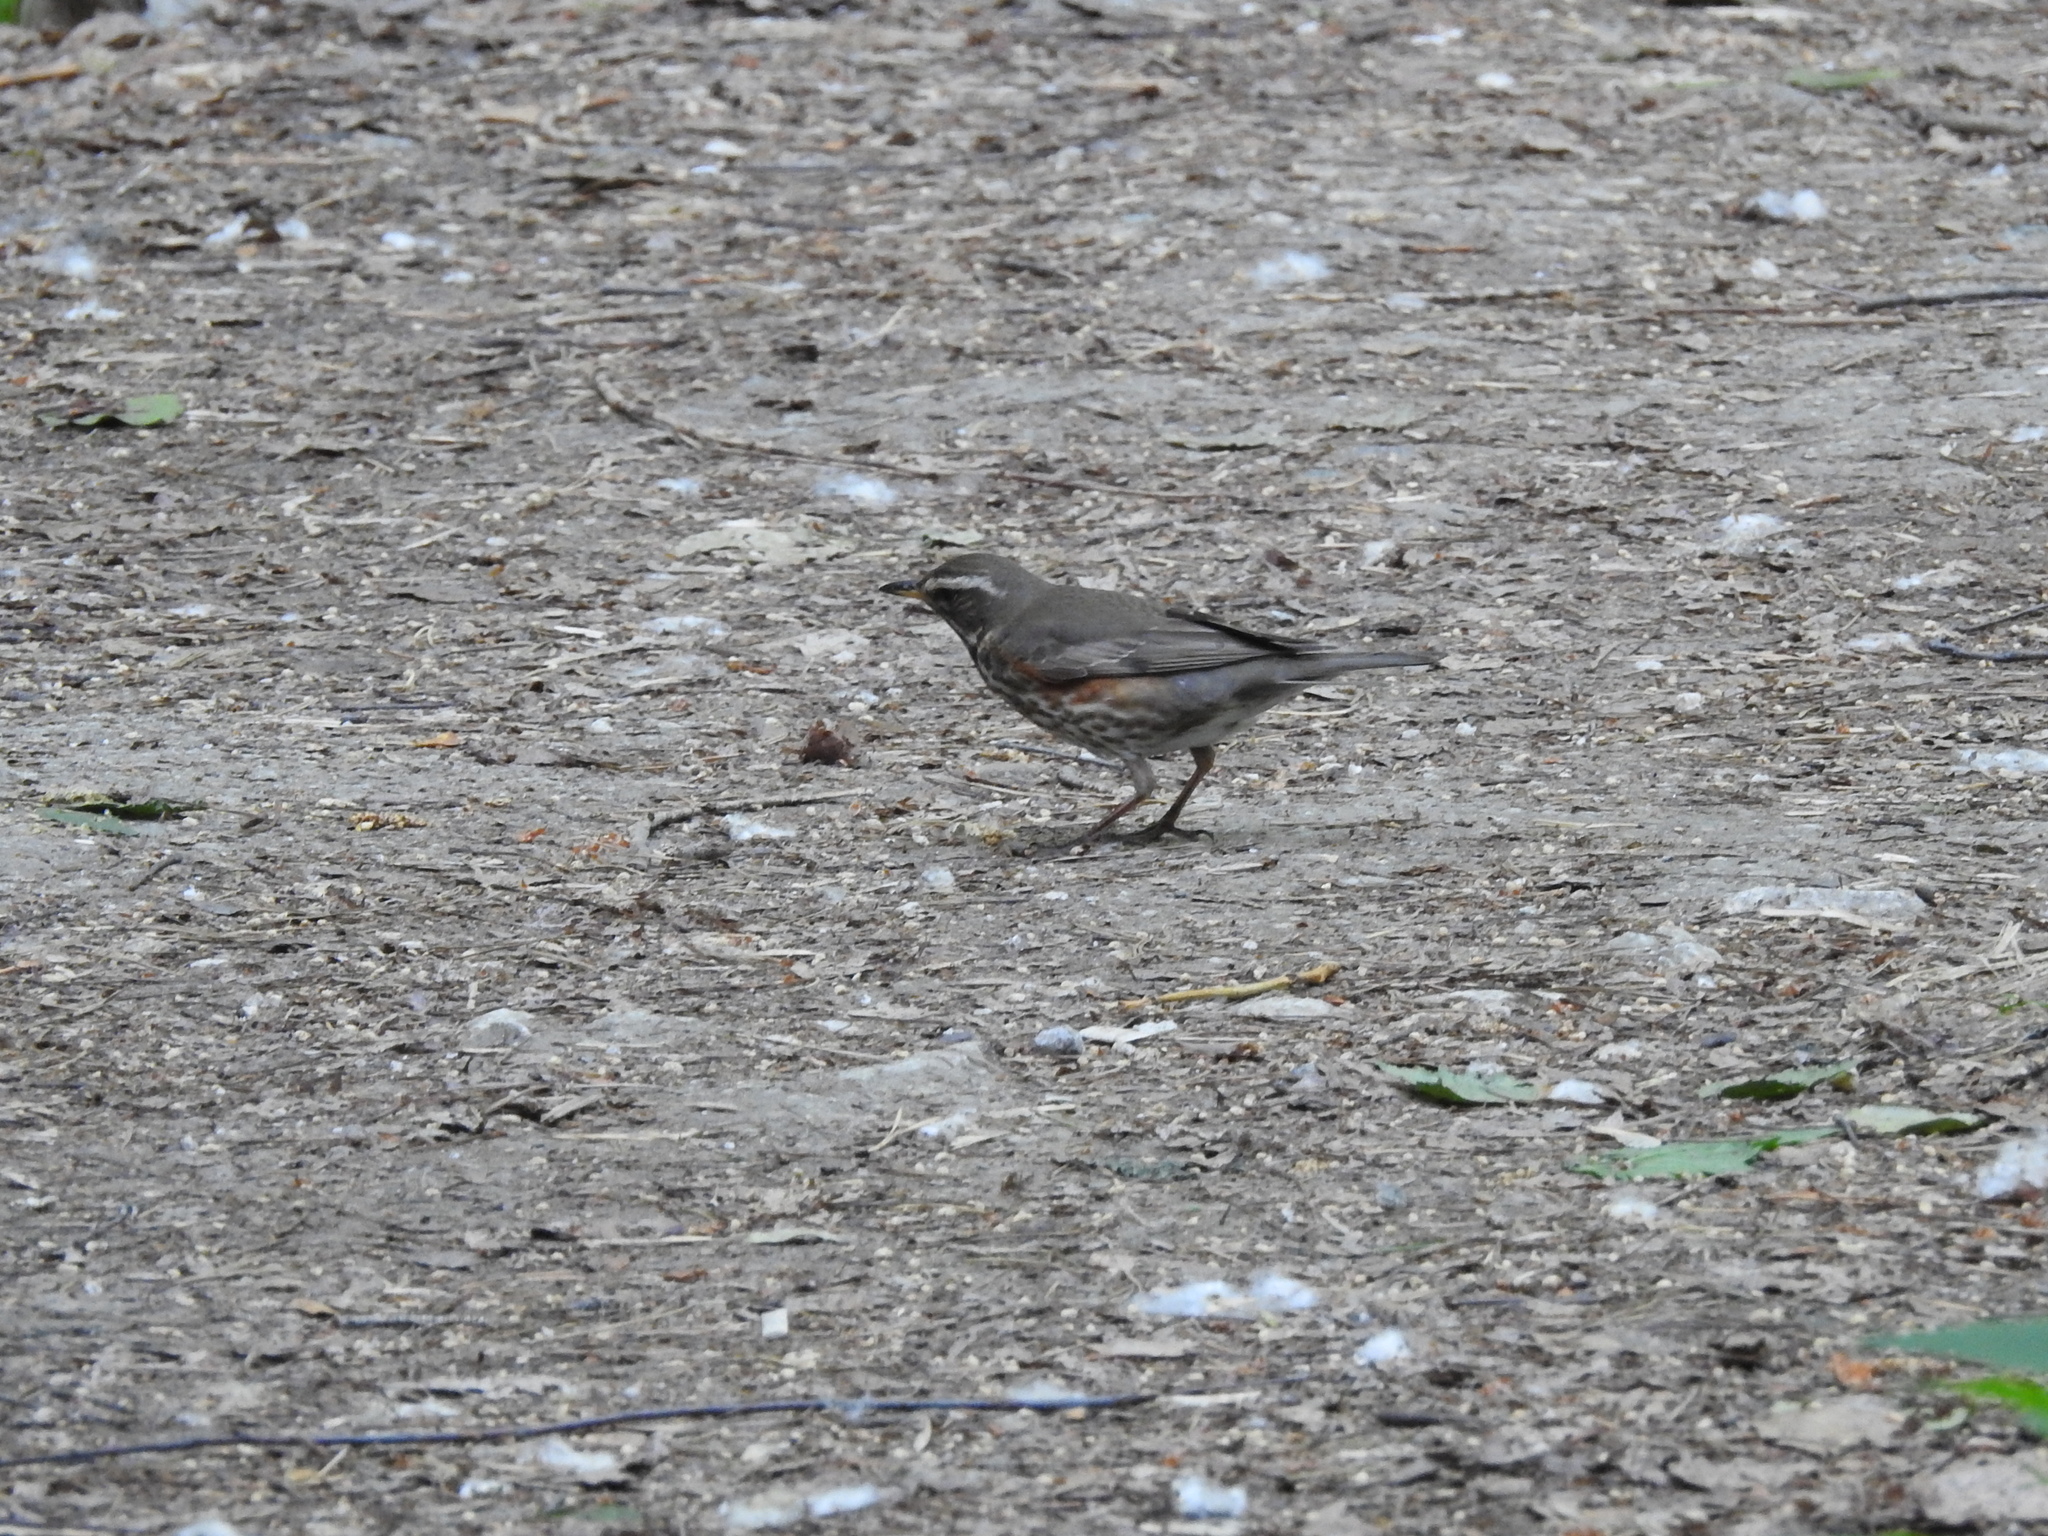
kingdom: Animalia
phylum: Chordata
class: Aves
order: Passeriformes
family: Turdidae
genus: Turdus
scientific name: Turdus iliacus
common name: Redwing
